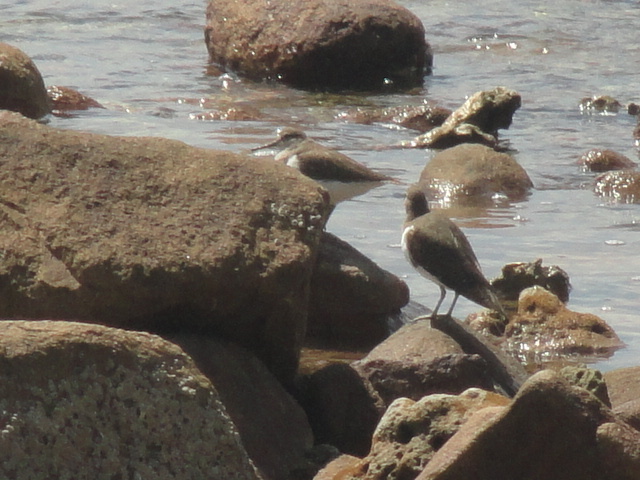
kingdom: Animalia
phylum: Chordata
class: Aves
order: Charadriiformes
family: Scolopacidae
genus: Actitis
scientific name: Actitis hypoleucos
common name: Common sandpiper
